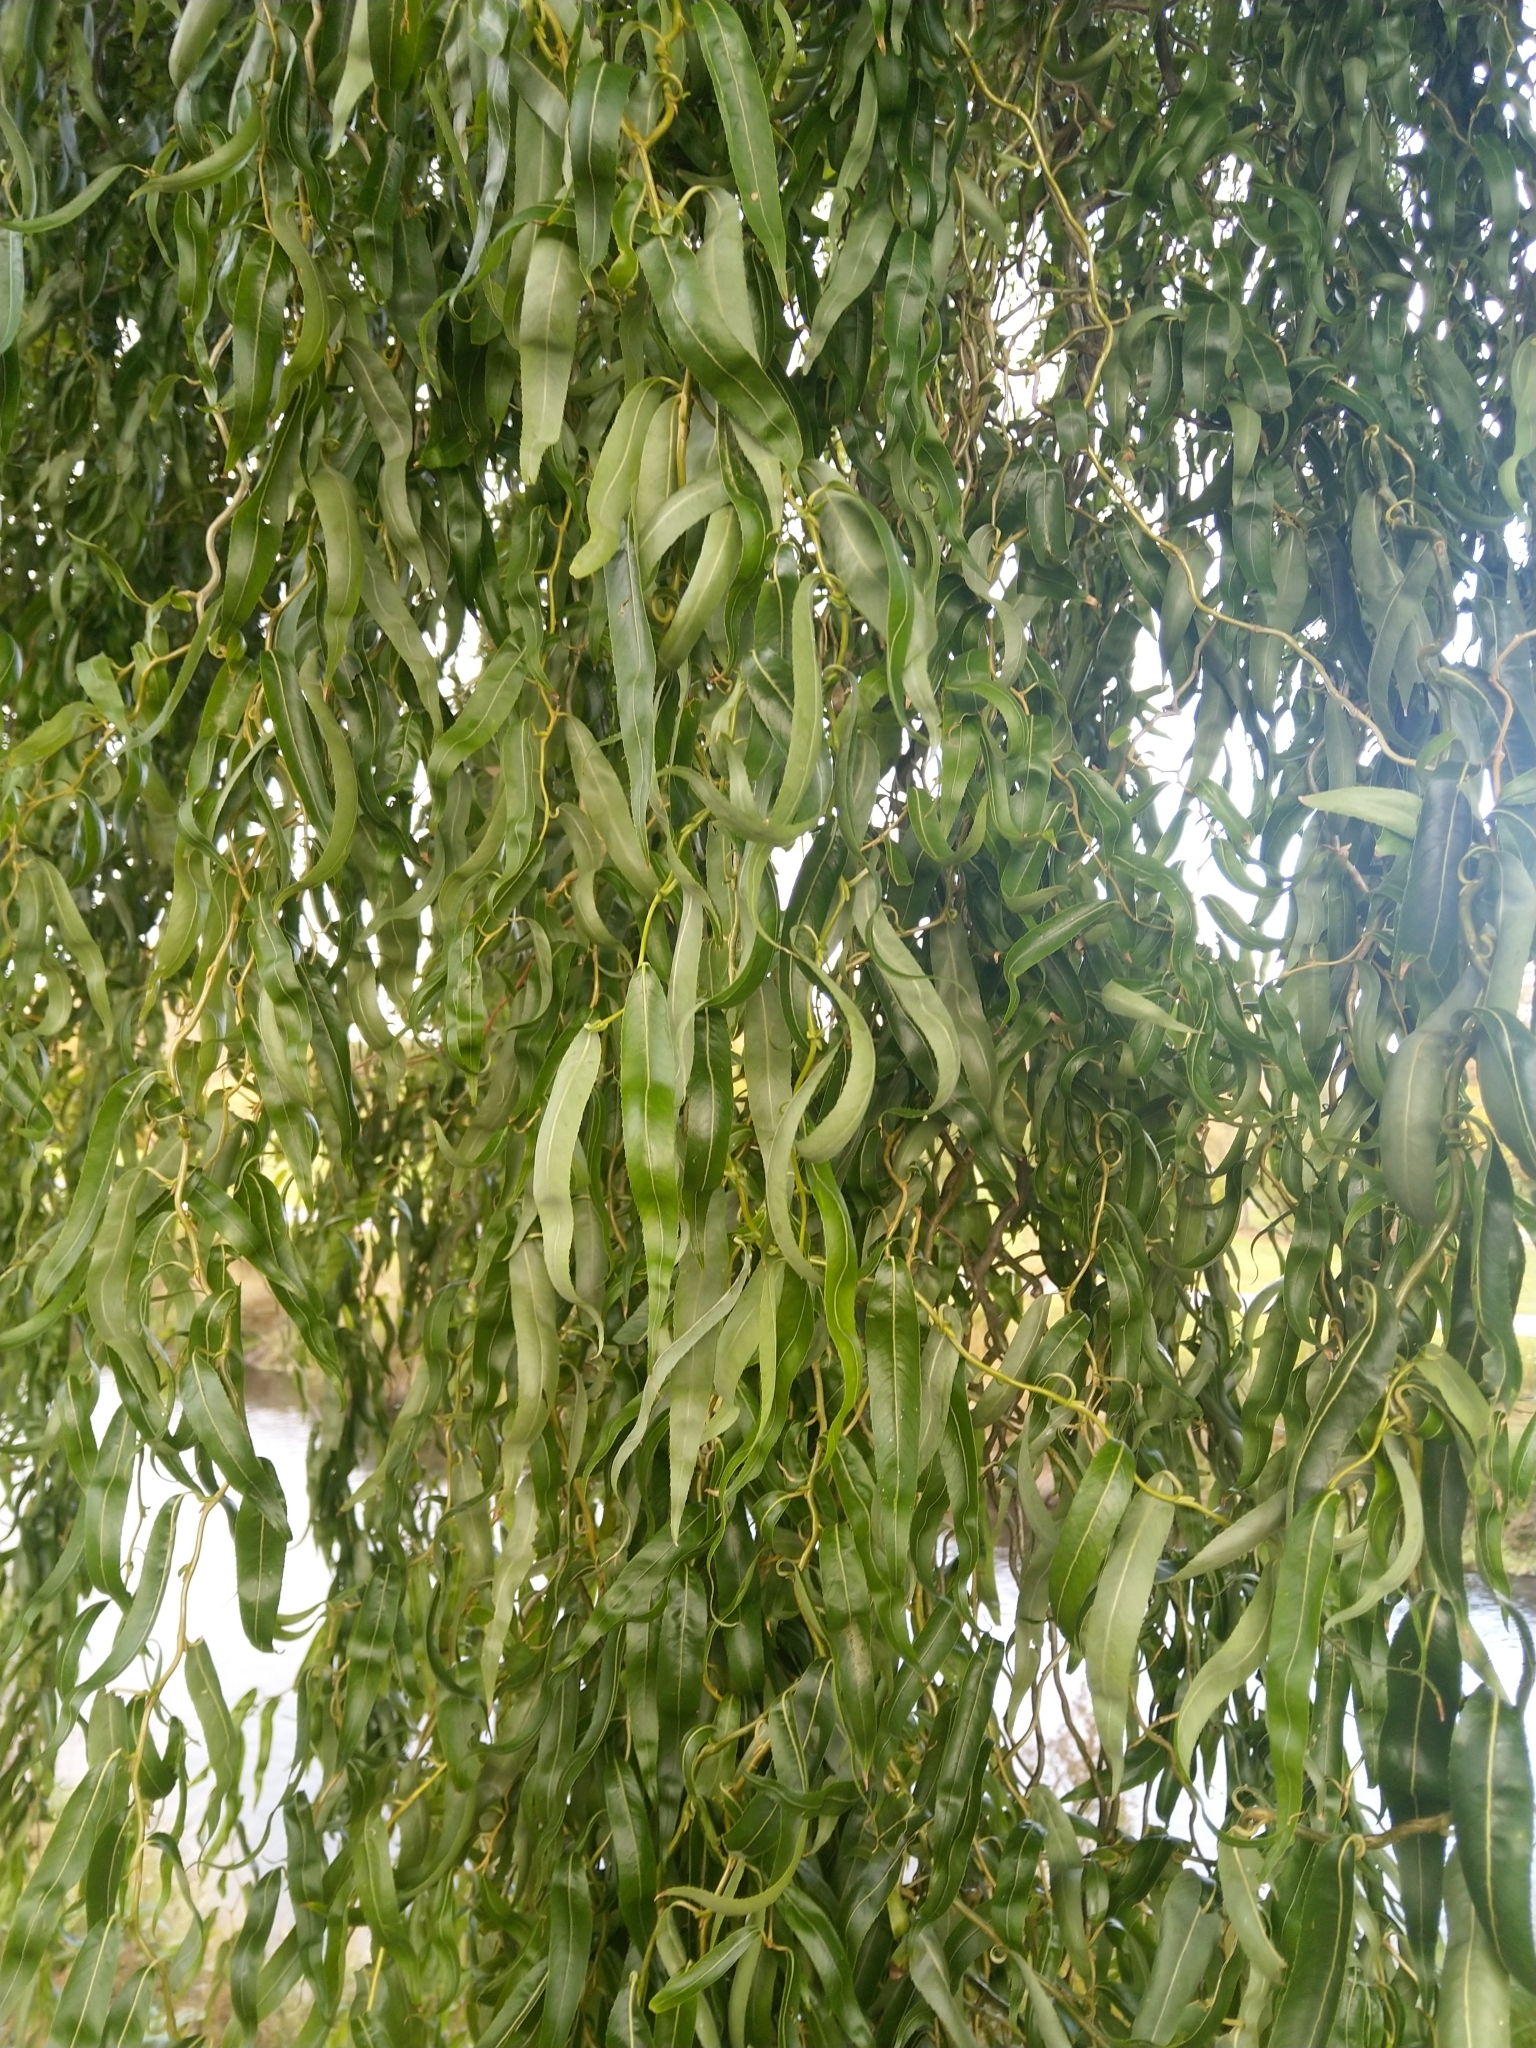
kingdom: Plantae
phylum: Tracheophyta
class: Magnoliopsida
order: Malpighiales
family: Salicaceae
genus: Salix
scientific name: Salix
